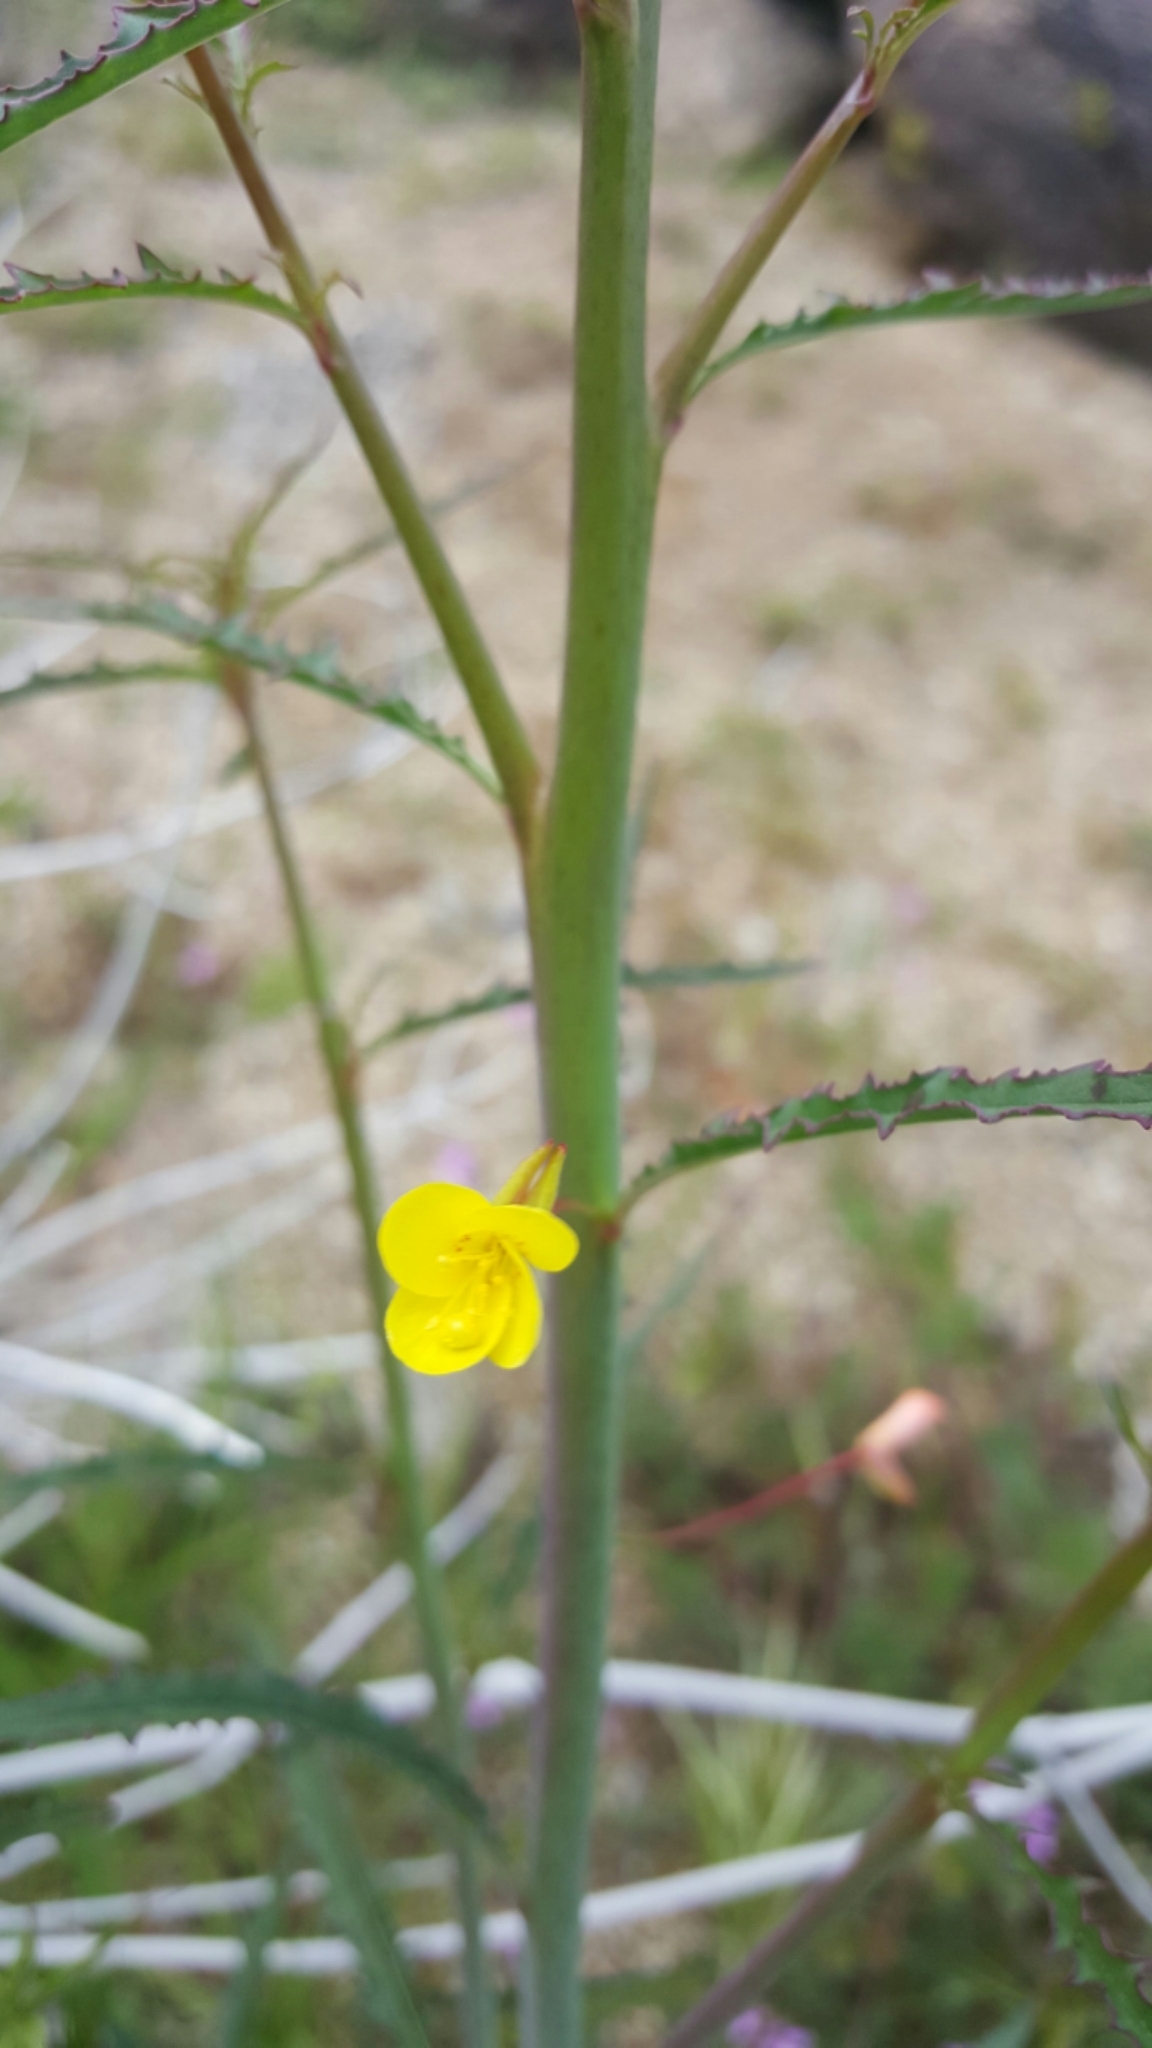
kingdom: Plantae
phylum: Tracheophyta
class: Magnoliopsida
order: Myrtales
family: Onagraceae
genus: Eulobus
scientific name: Eulobus californicus
